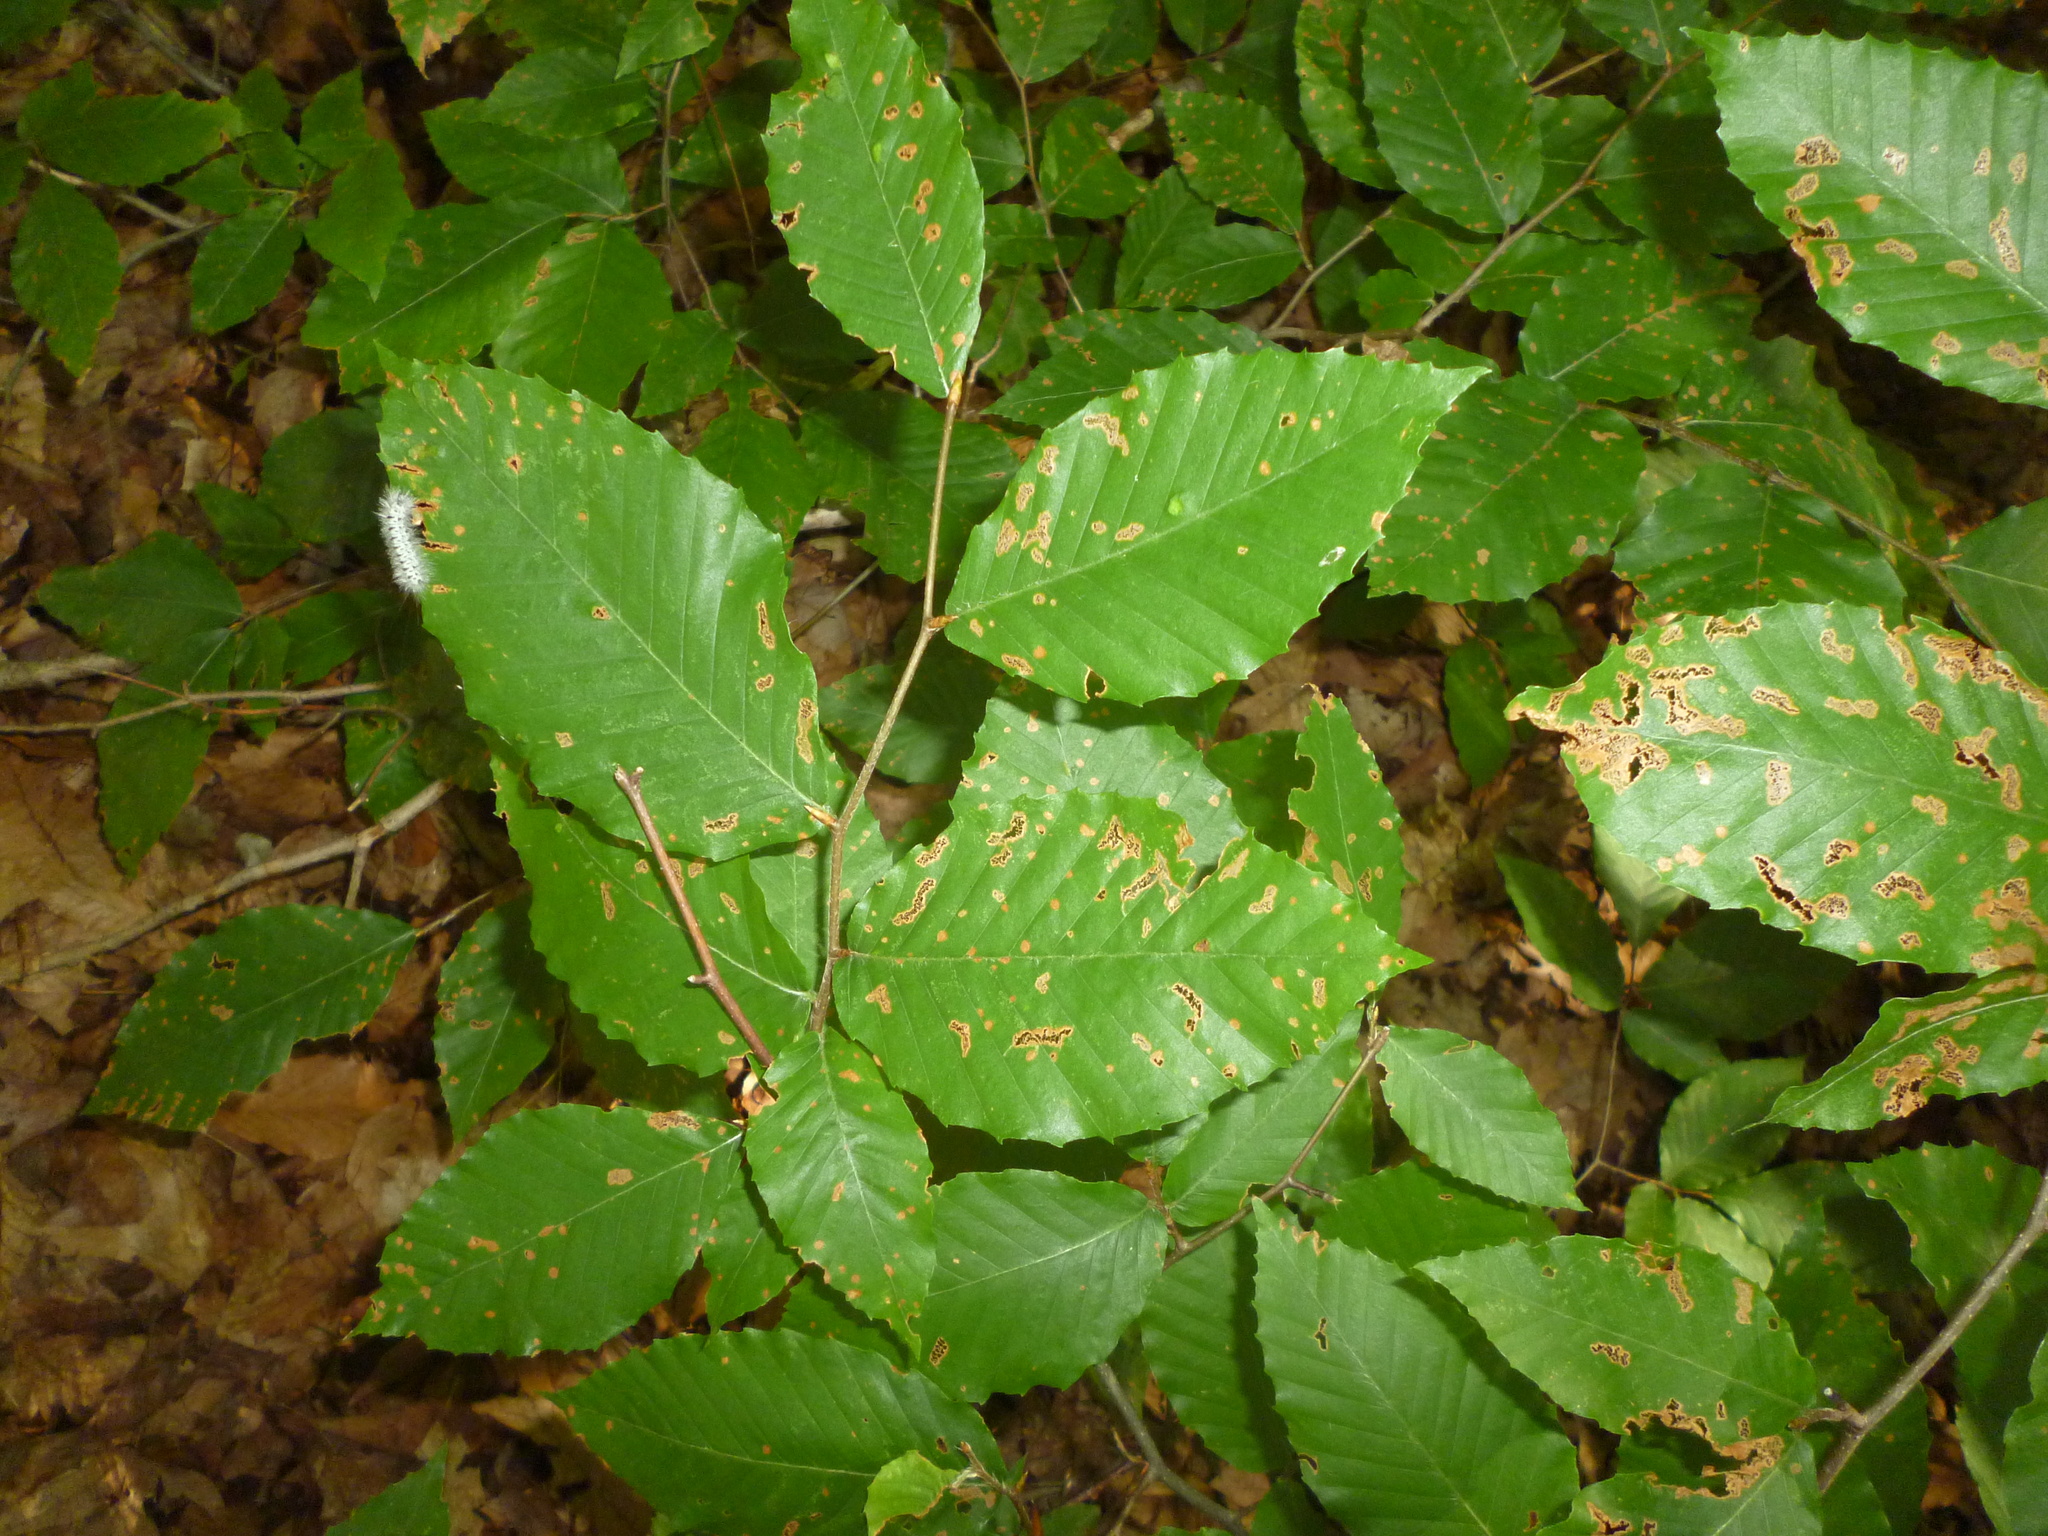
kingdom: Plantae
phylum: Tracheophyta
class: Magnoliopsida
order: Fagales
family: Fagaceae
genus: Fagus
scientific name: Fagus grandifolia
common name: American beech
